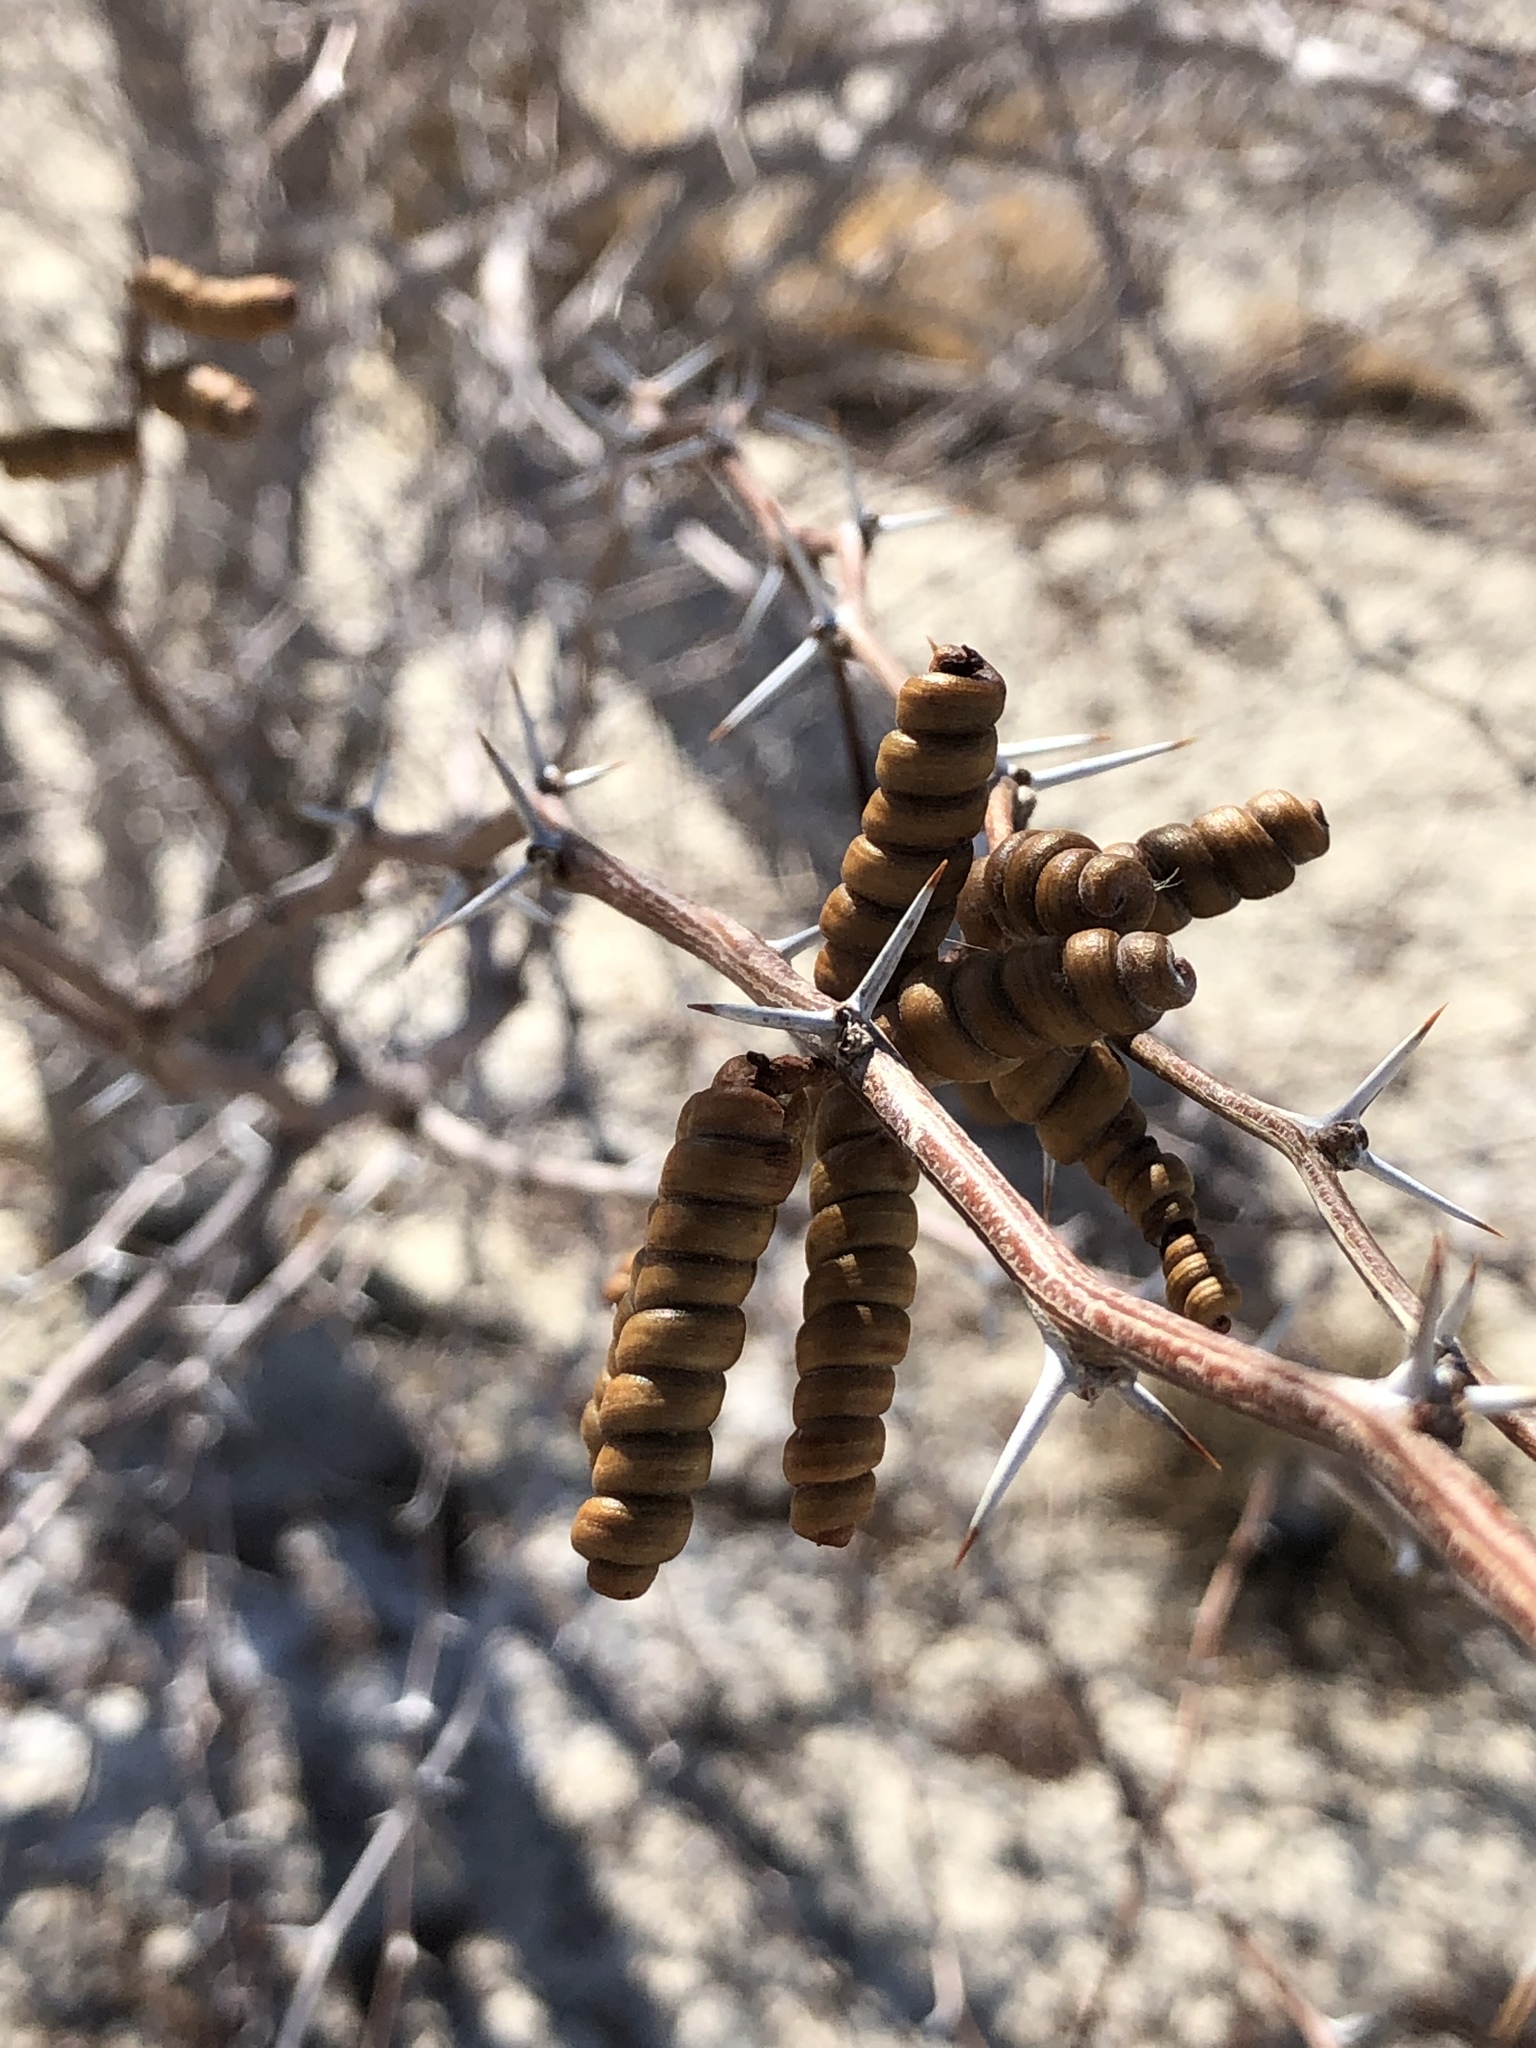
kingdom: Plantae
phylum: Tracheophyta
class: Magnoliopsida
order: Fabales
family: Fabaceae
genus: Prosopis
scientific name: Prosopis pubescens
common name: Screw-bean
